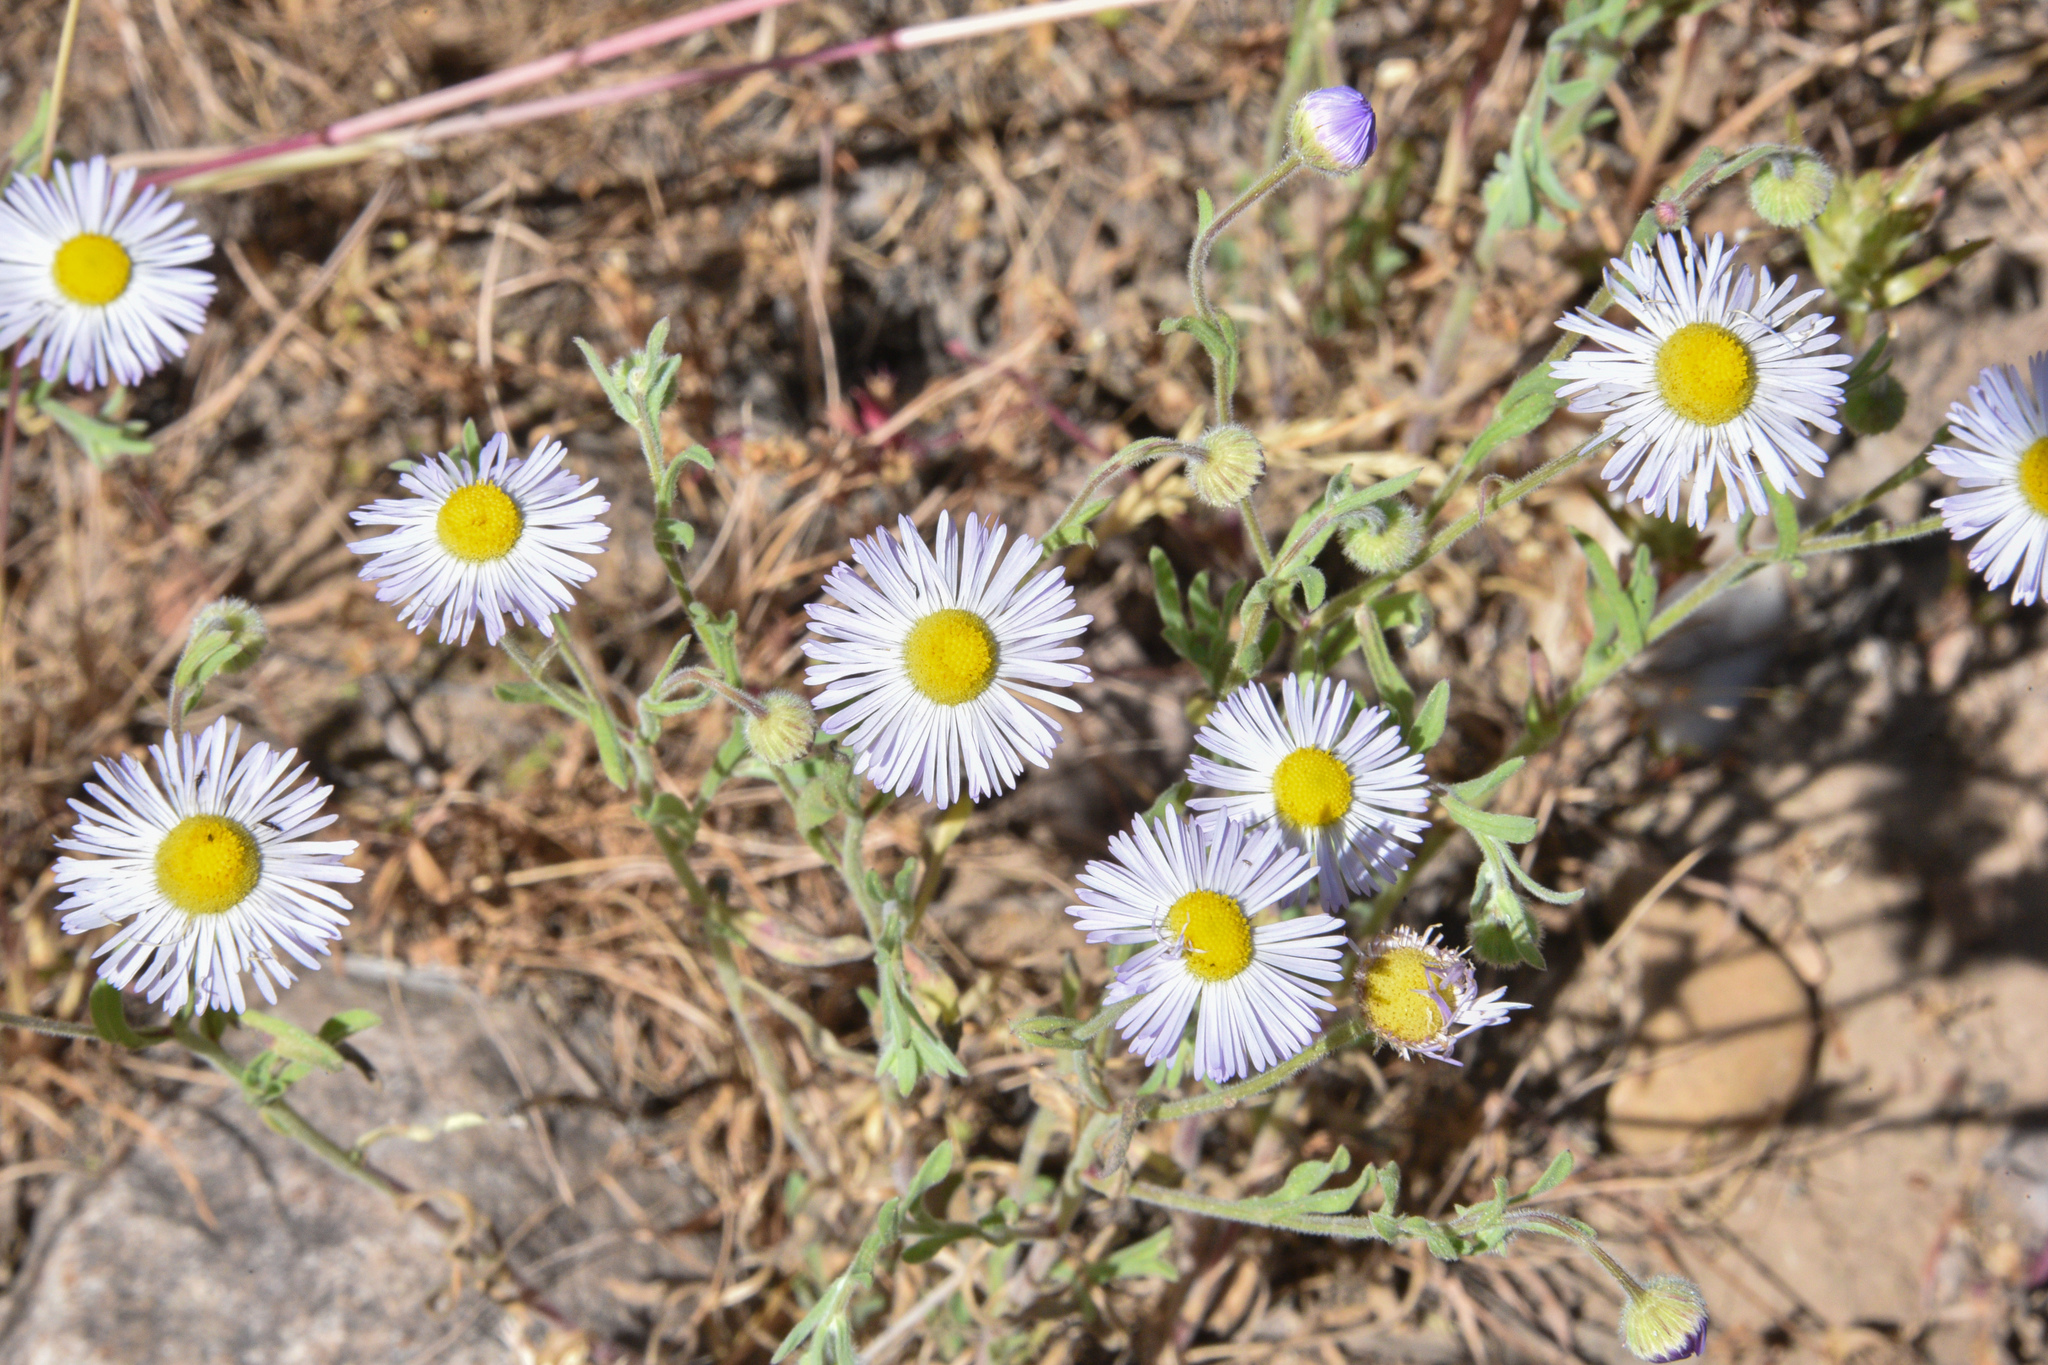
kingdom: Plantae
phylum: Tracheophyta
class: Magnoliopsida
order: Asterales
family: Asteraceae
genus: Erigeron
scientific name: Erigeron divergens
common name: Diffuse fleabane
